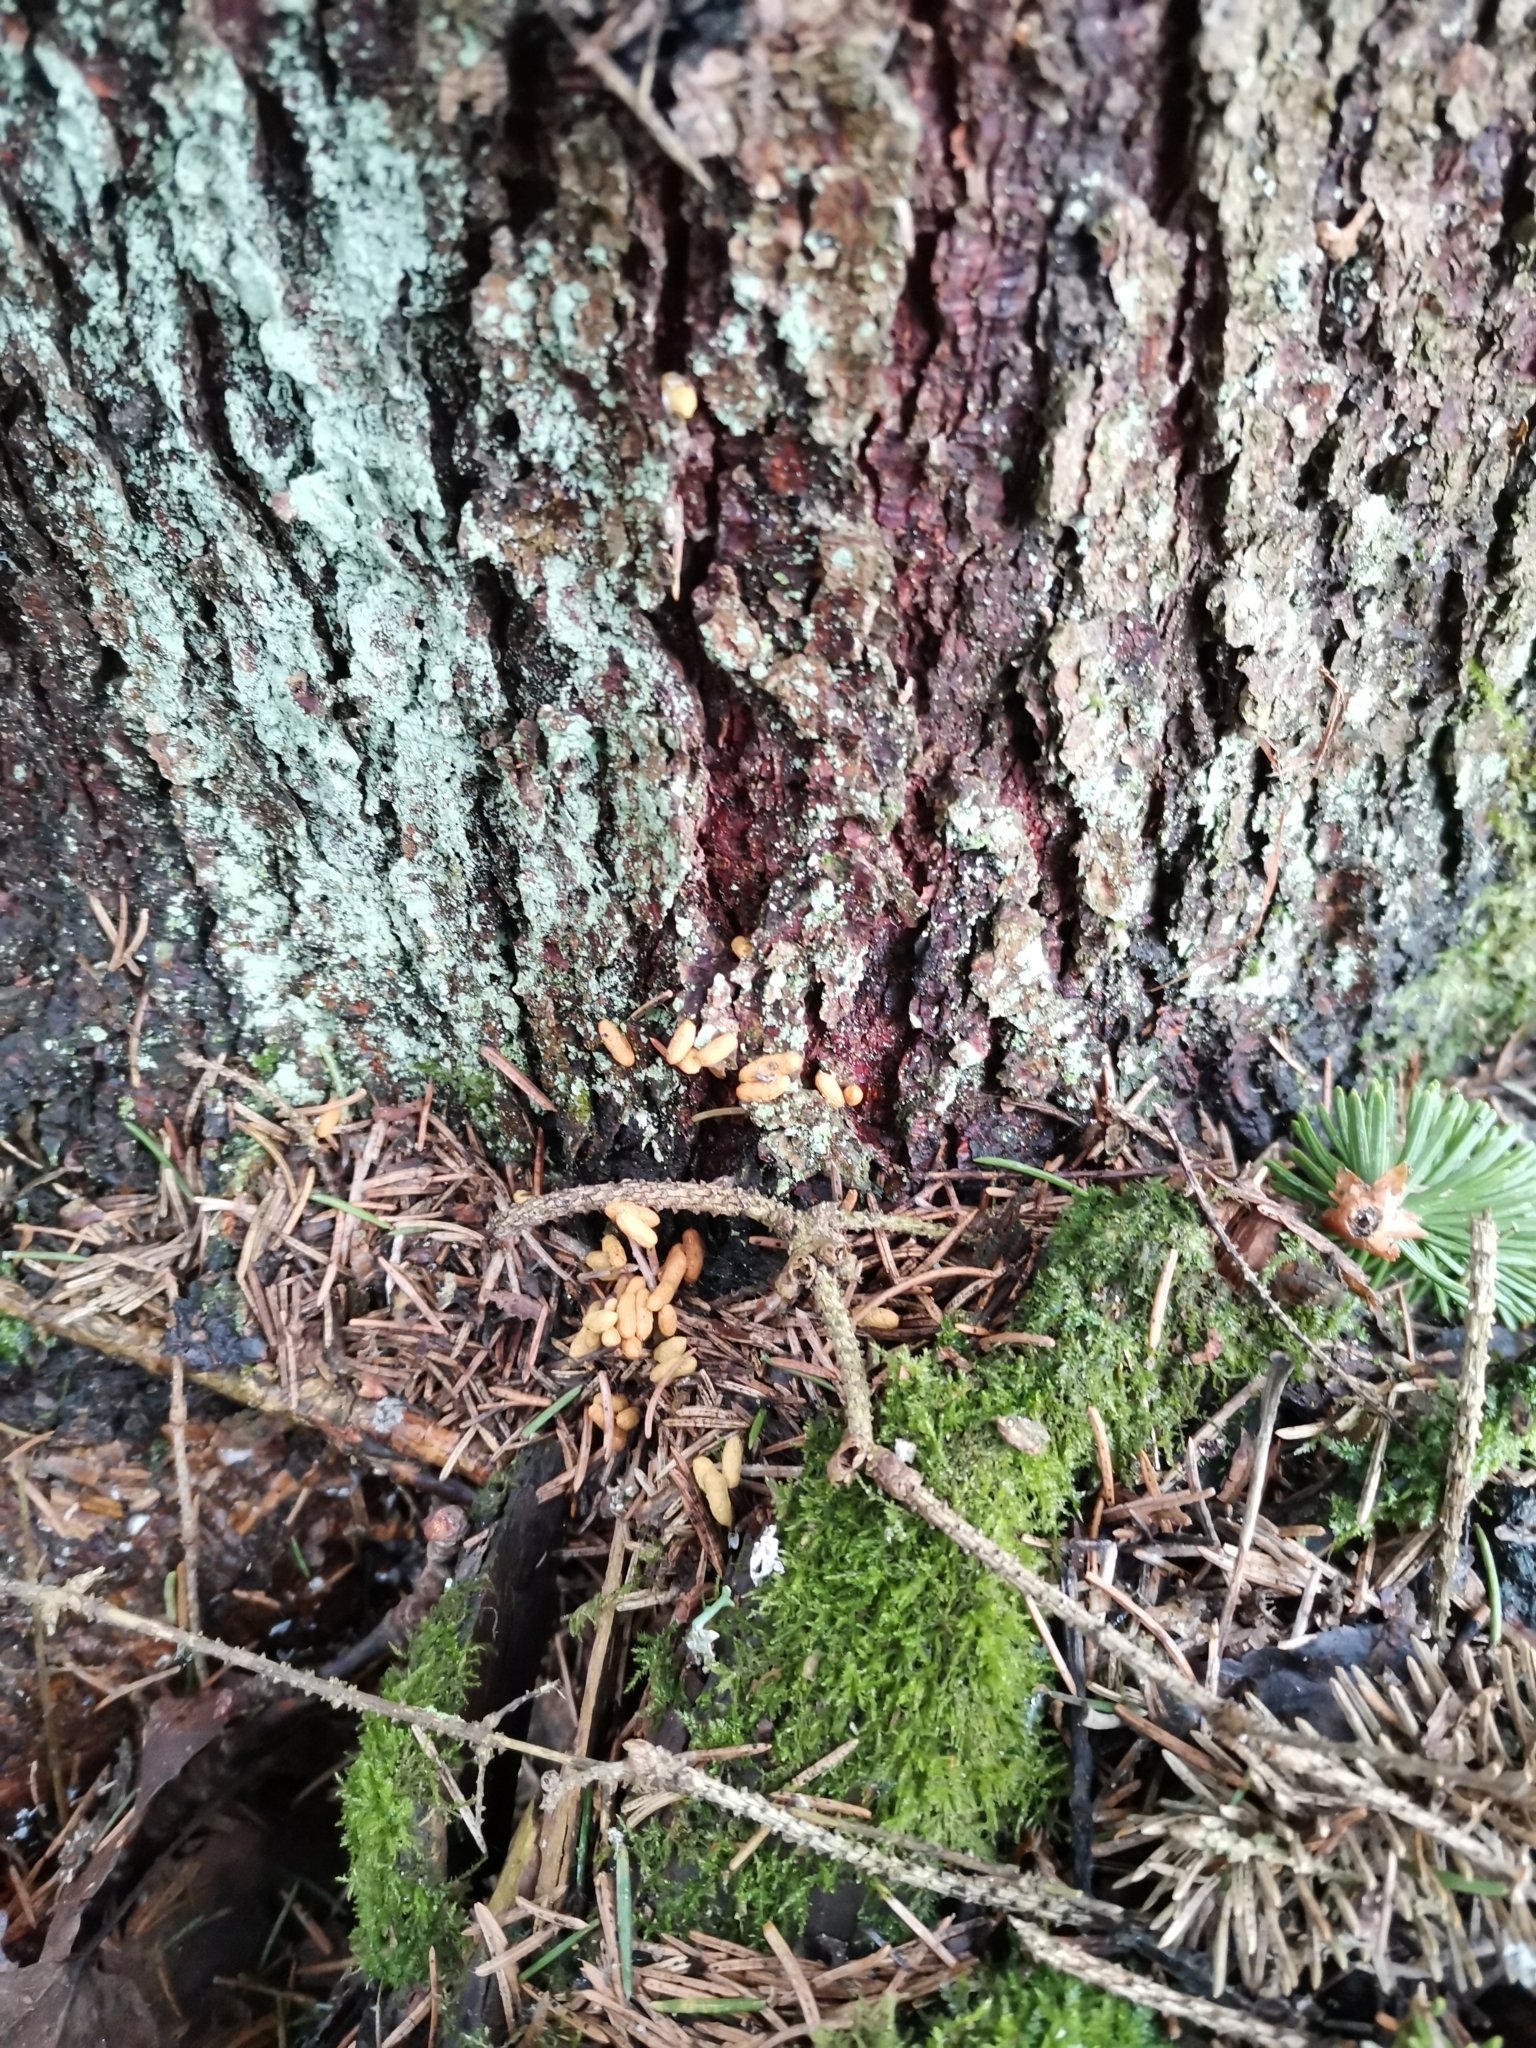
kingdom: Animalia
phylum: Chordata
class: Mammalia
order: Rodentia
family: Sciuridae
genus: Pteromys
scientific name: Pteromys volans
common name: Siberian flying squirrel
